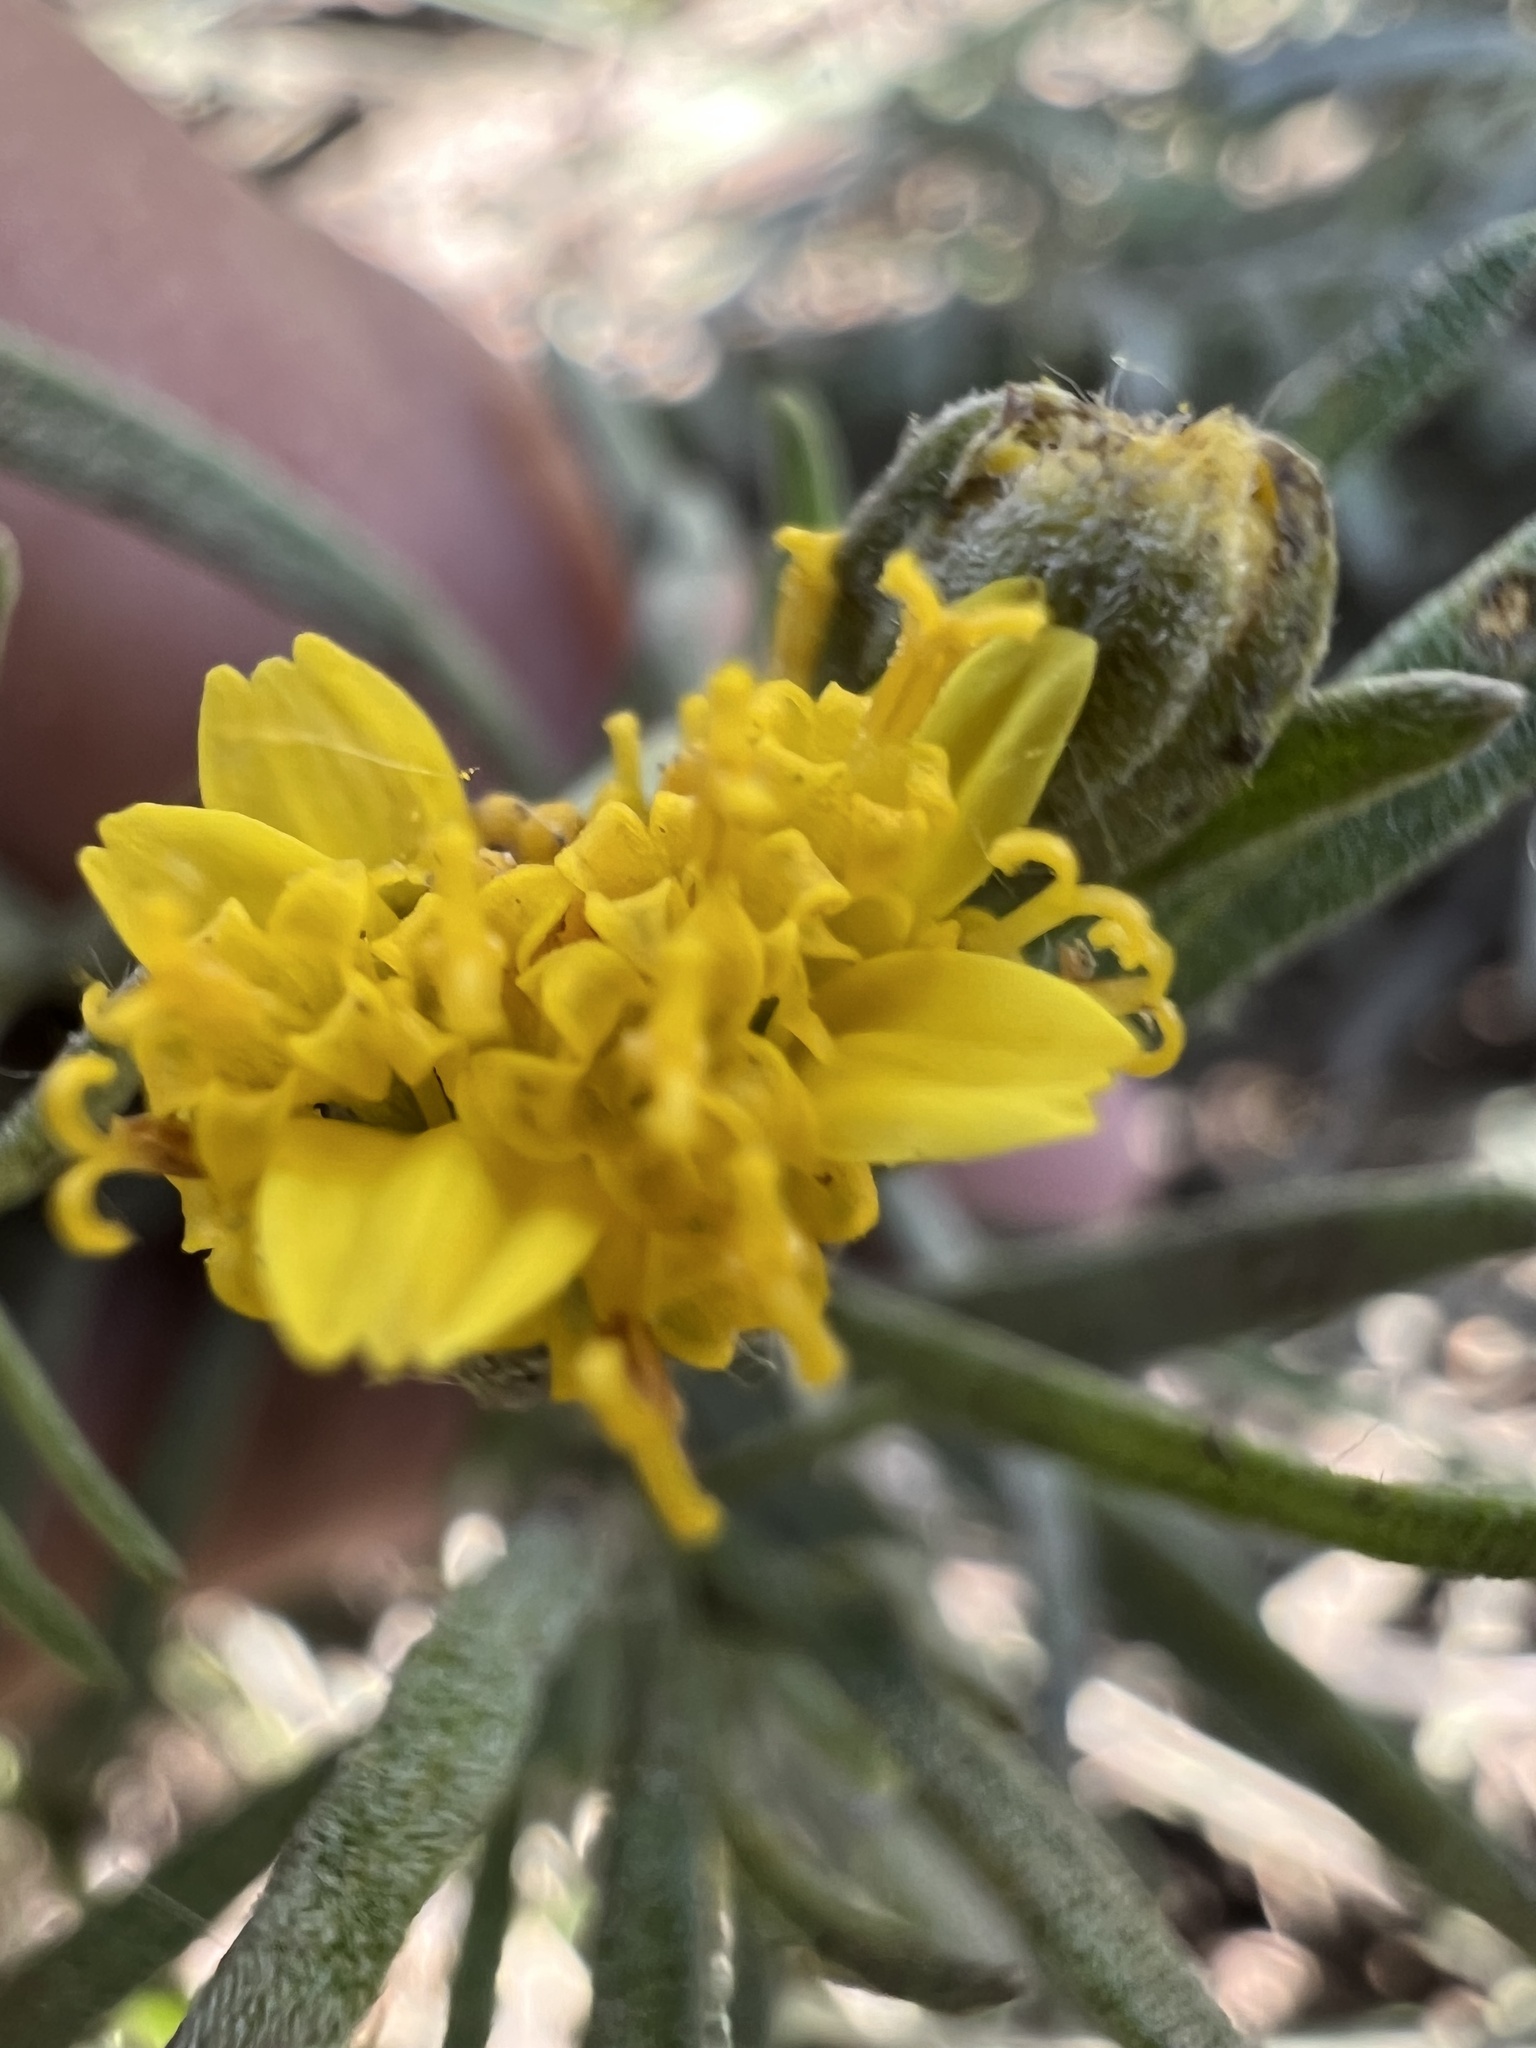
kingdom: Plantae
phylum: Tracheophyta
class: Magnoliopsida
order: Asterales
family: Asteraceae
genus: Picradeniopsis
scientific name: Picradeniopsis oppositifolia
